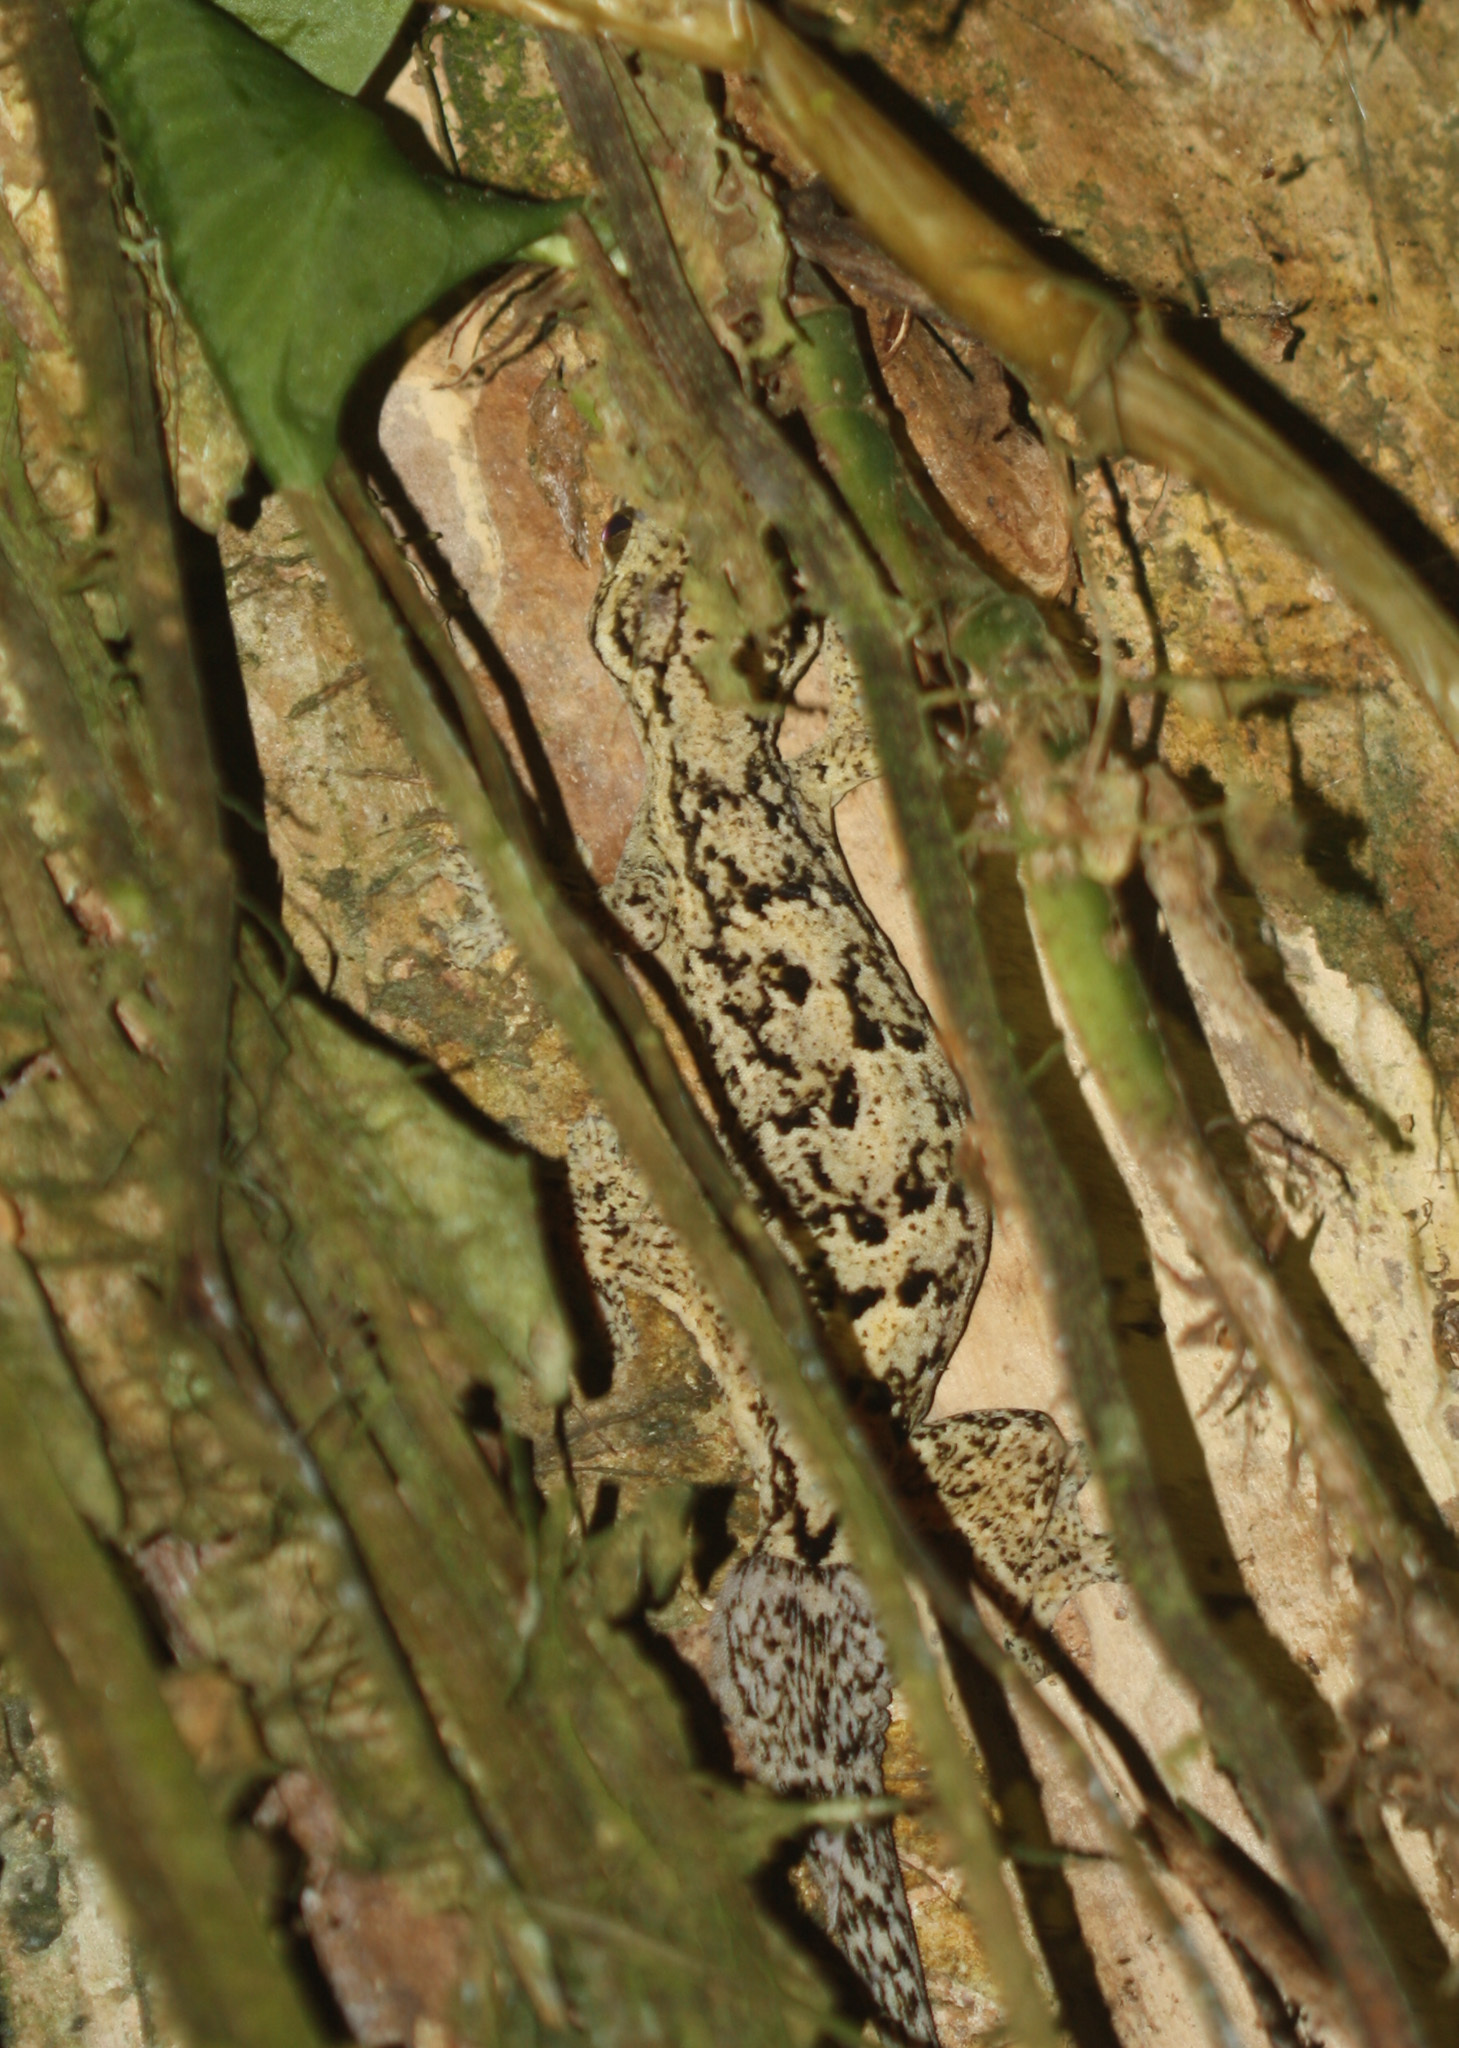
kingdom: Animalia
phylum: Chordata
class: Squamata
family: Phyllodactylidae
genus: Thecadactylus
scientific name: Thecadactylus rapicauda
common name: Turnip-tailed gecko
